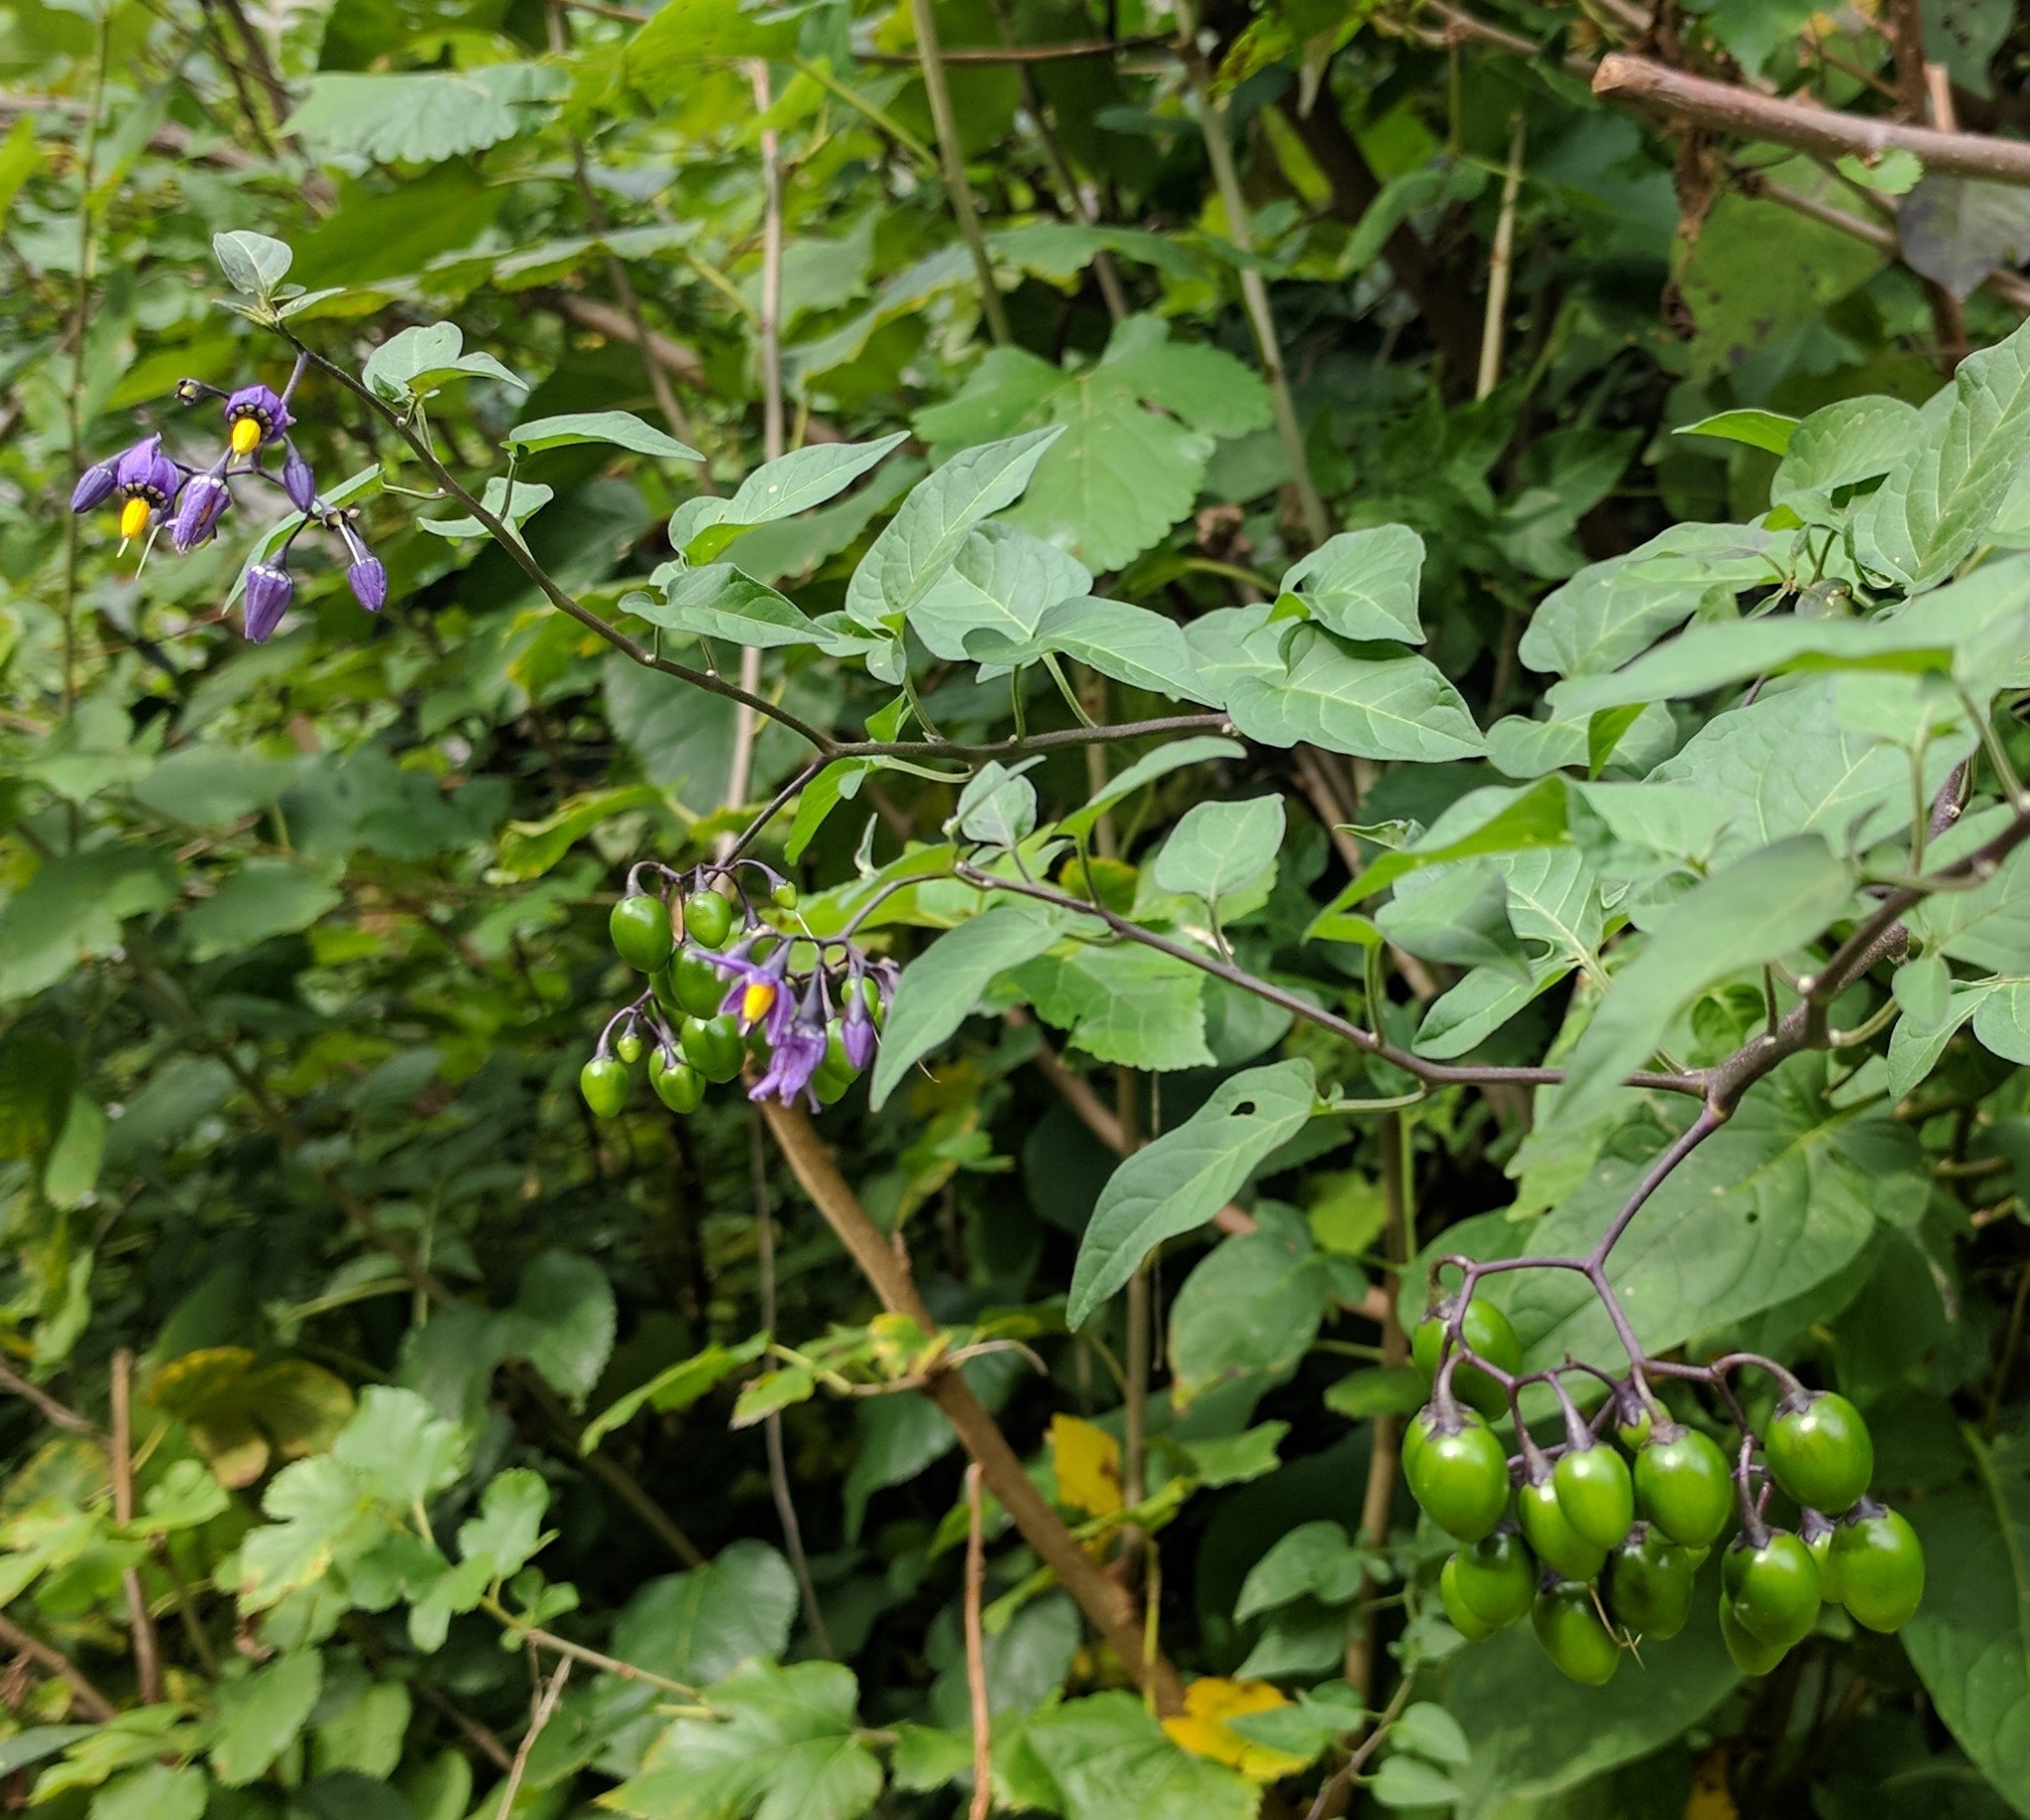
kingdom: Plantae
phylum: Tracheophyta
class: Magnoliopsida
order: Solanales
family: Solanaceae
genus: Solanum
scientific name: Solanum dulcamara
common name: Climbing nightshade
